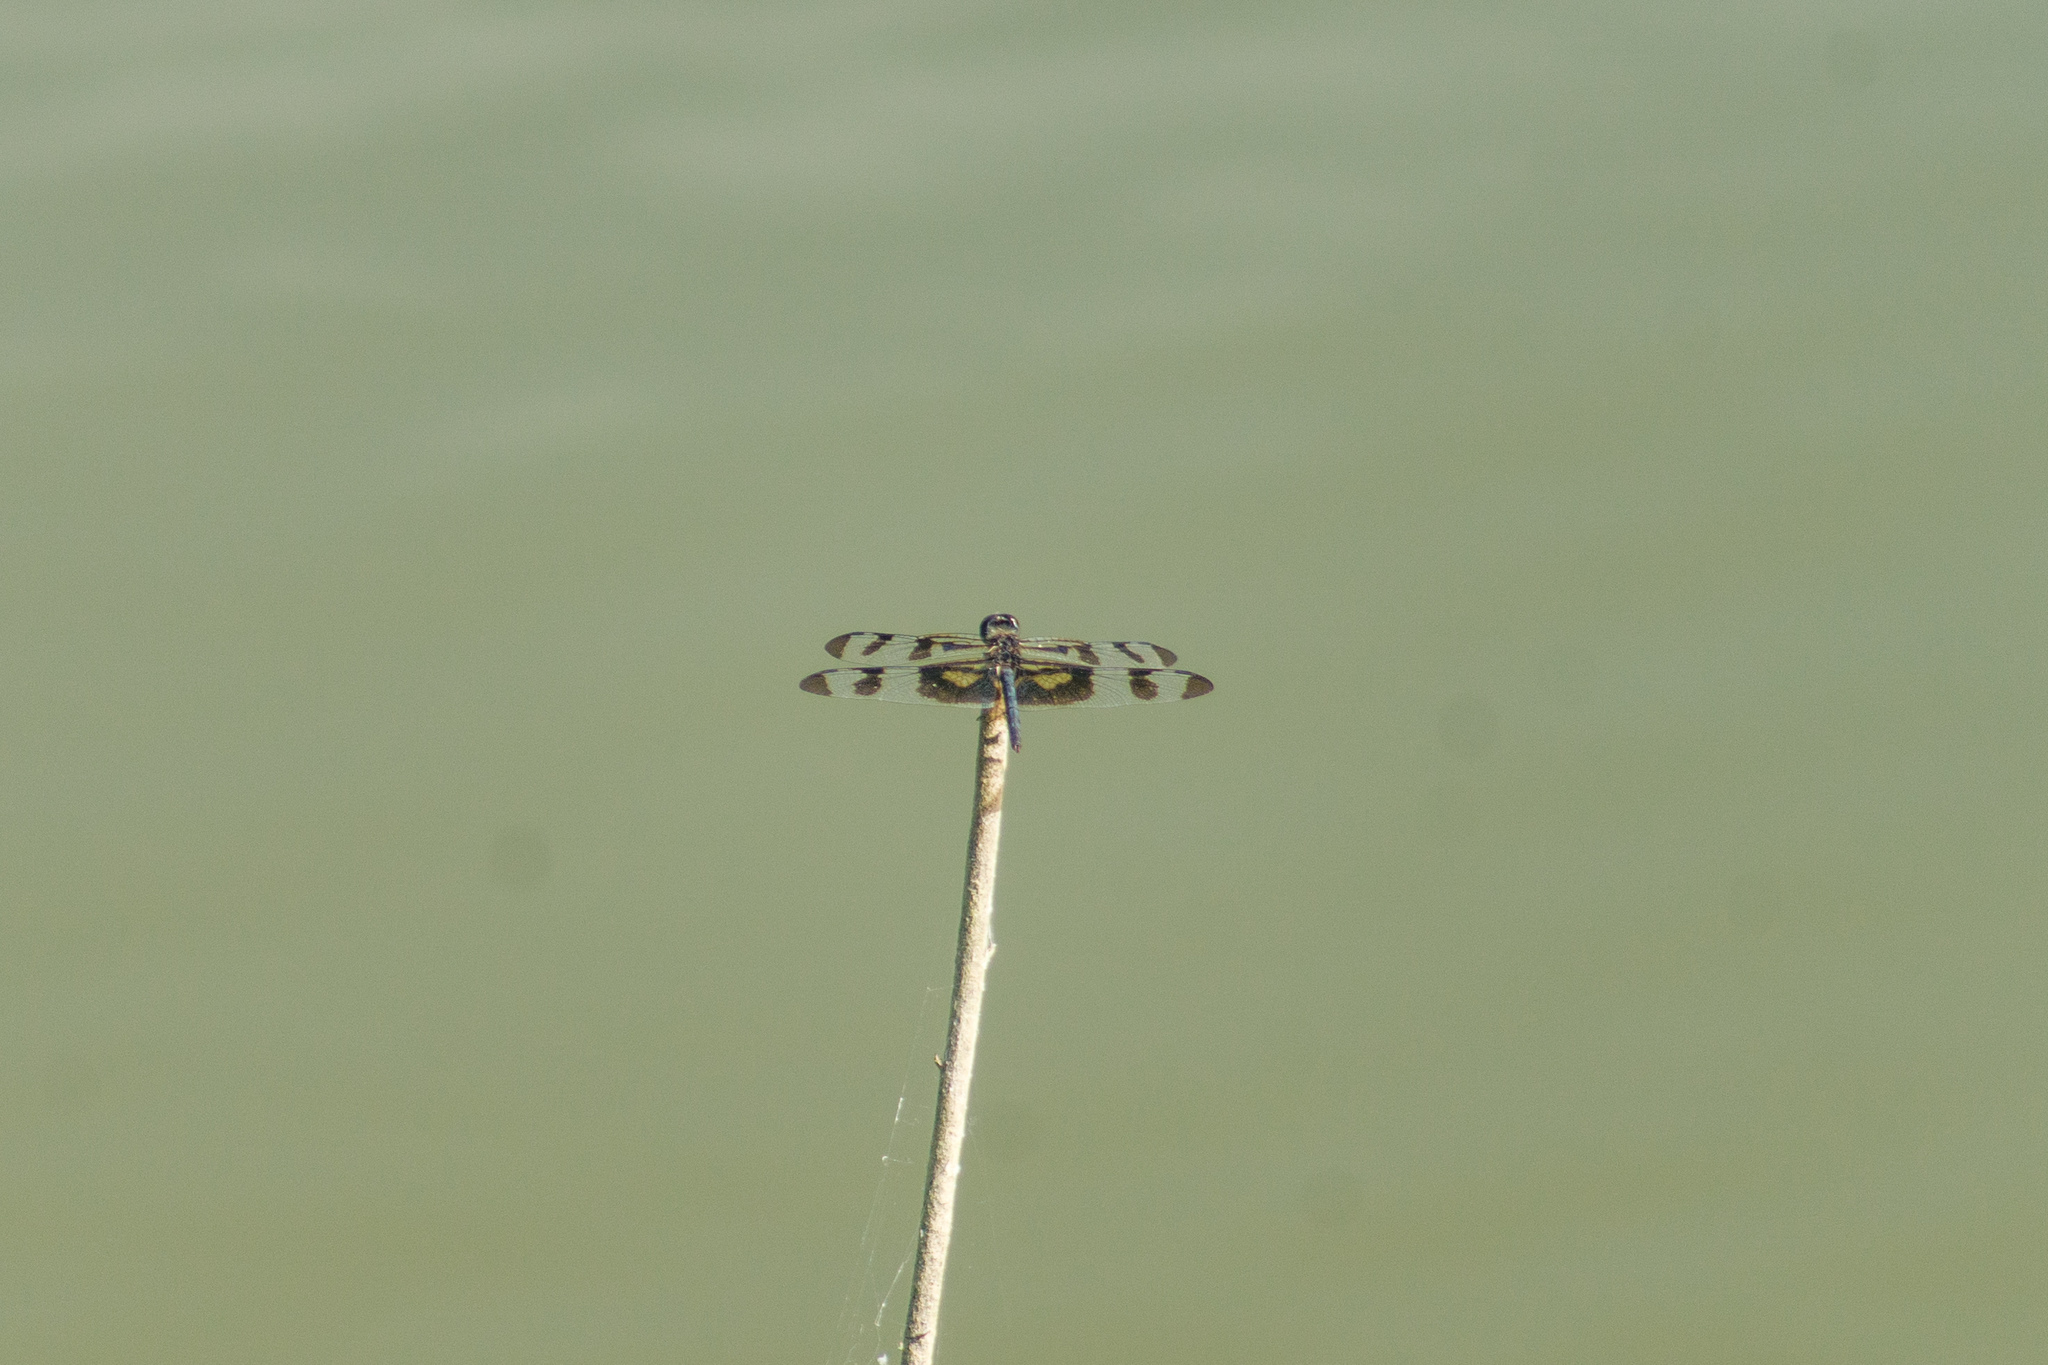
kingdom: Animalia
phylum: Arthropoda
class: Insecta
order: Odonata
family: Libellulidae
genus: Celithemis
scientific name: Celithemis fasciata
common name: Banded pennant
